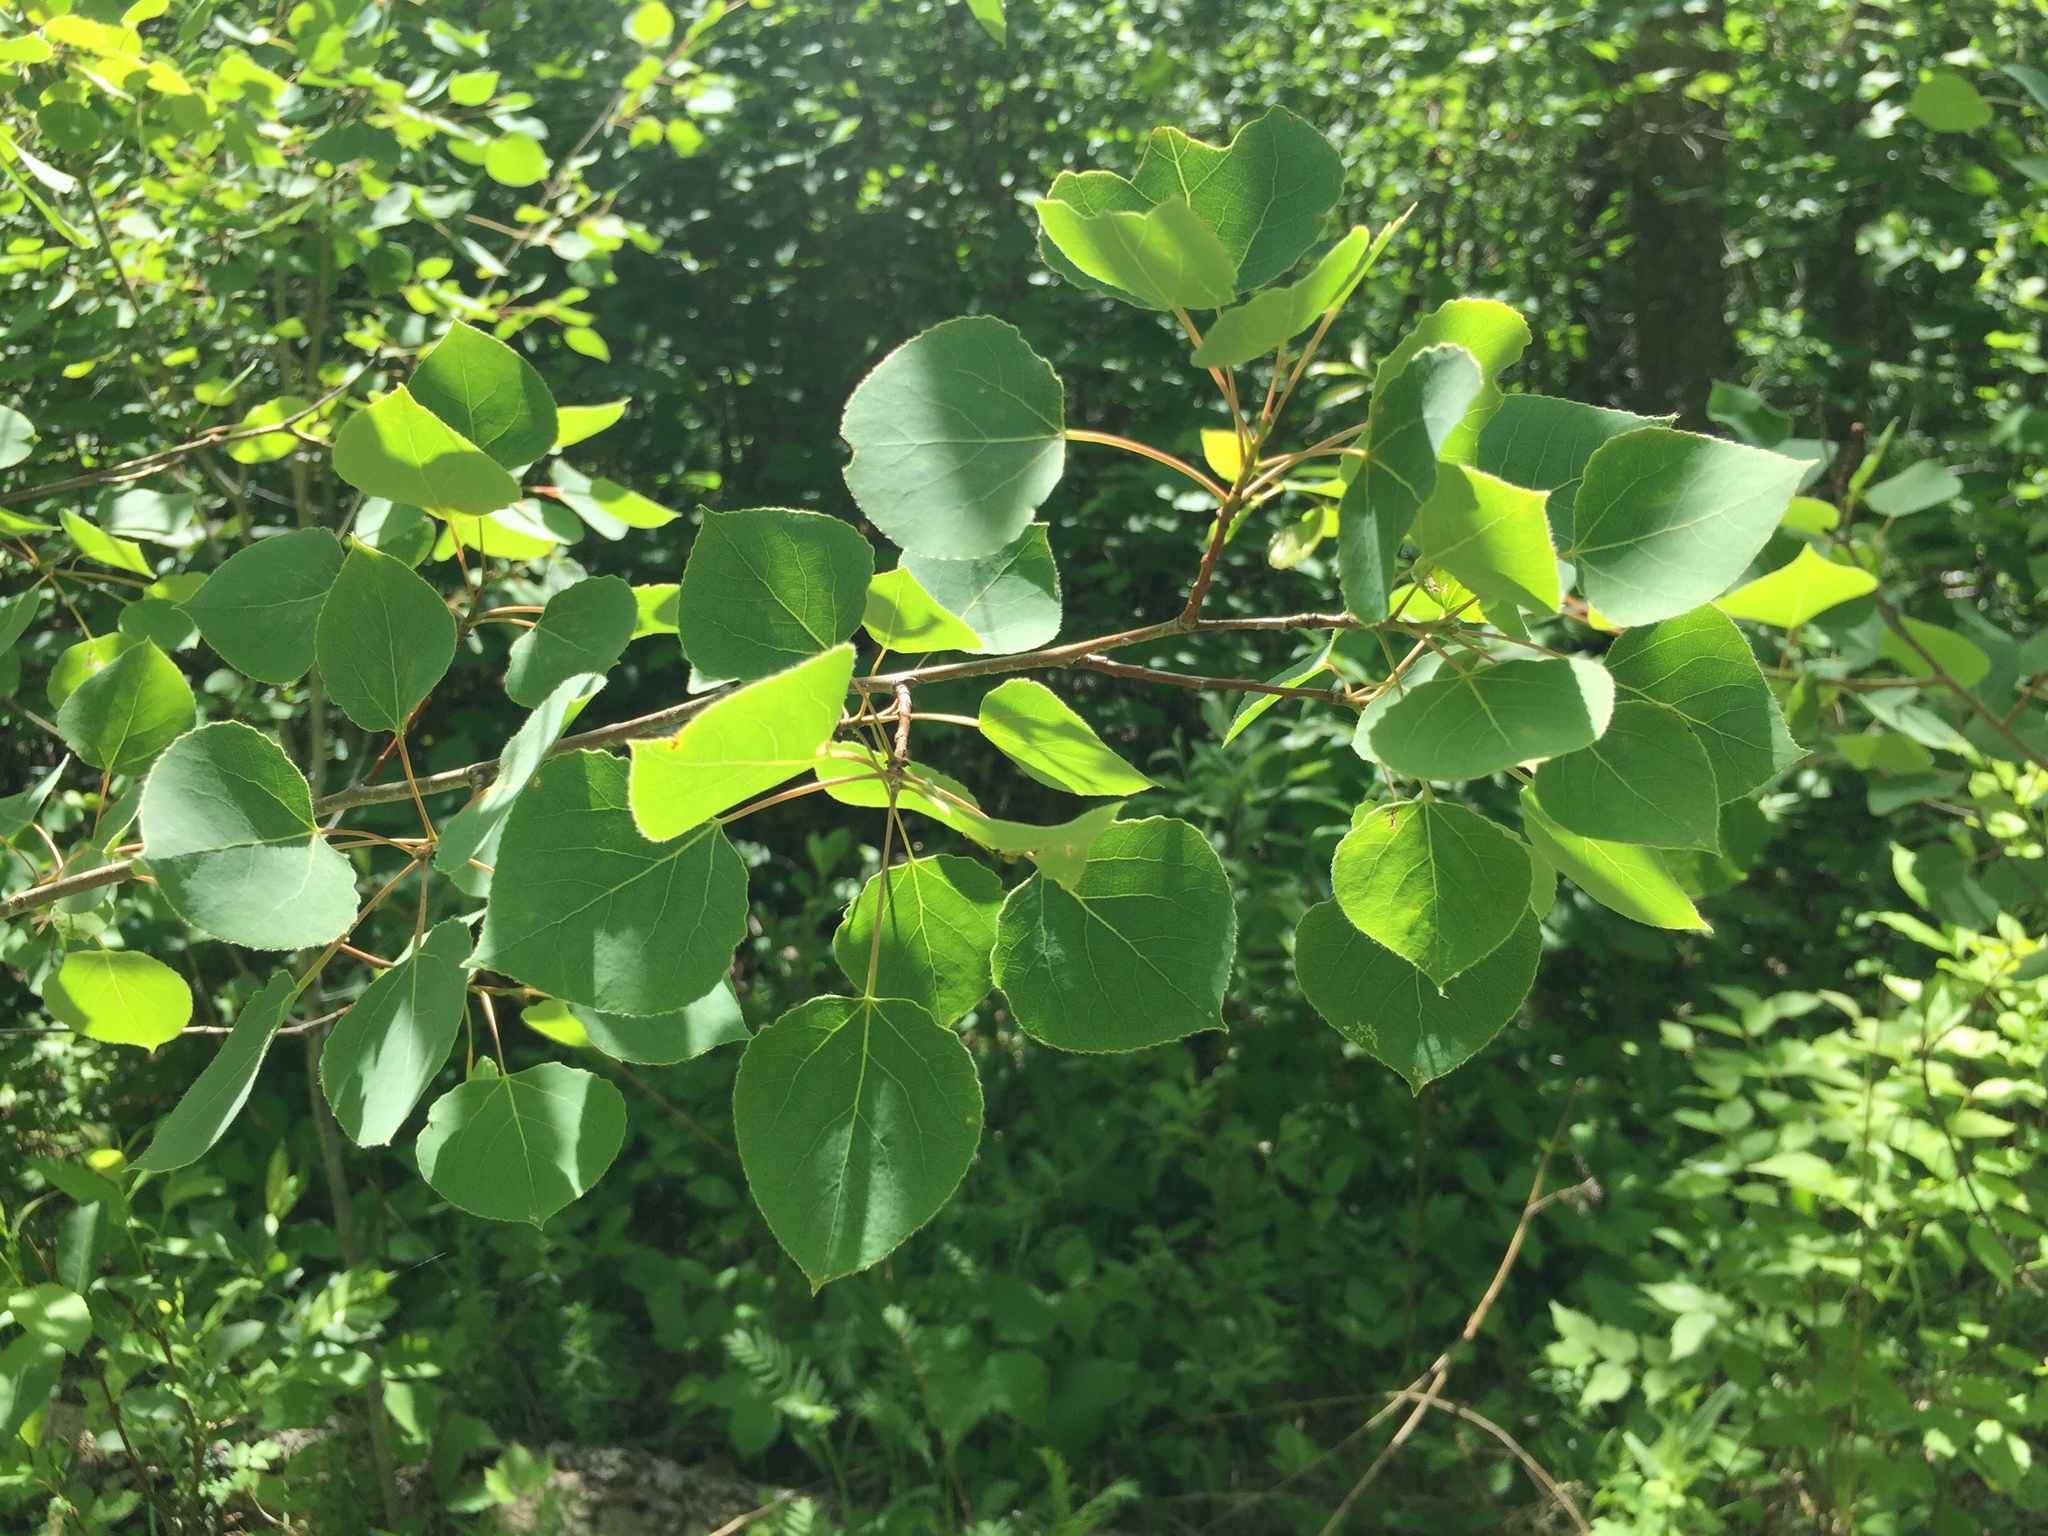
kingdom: Plantae
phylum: Tracheophyta
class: Magnoliopsida
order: Malpighiales
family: Salicaceae
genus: Populus
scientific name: Populus tremuloides
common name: Quaking aspen
